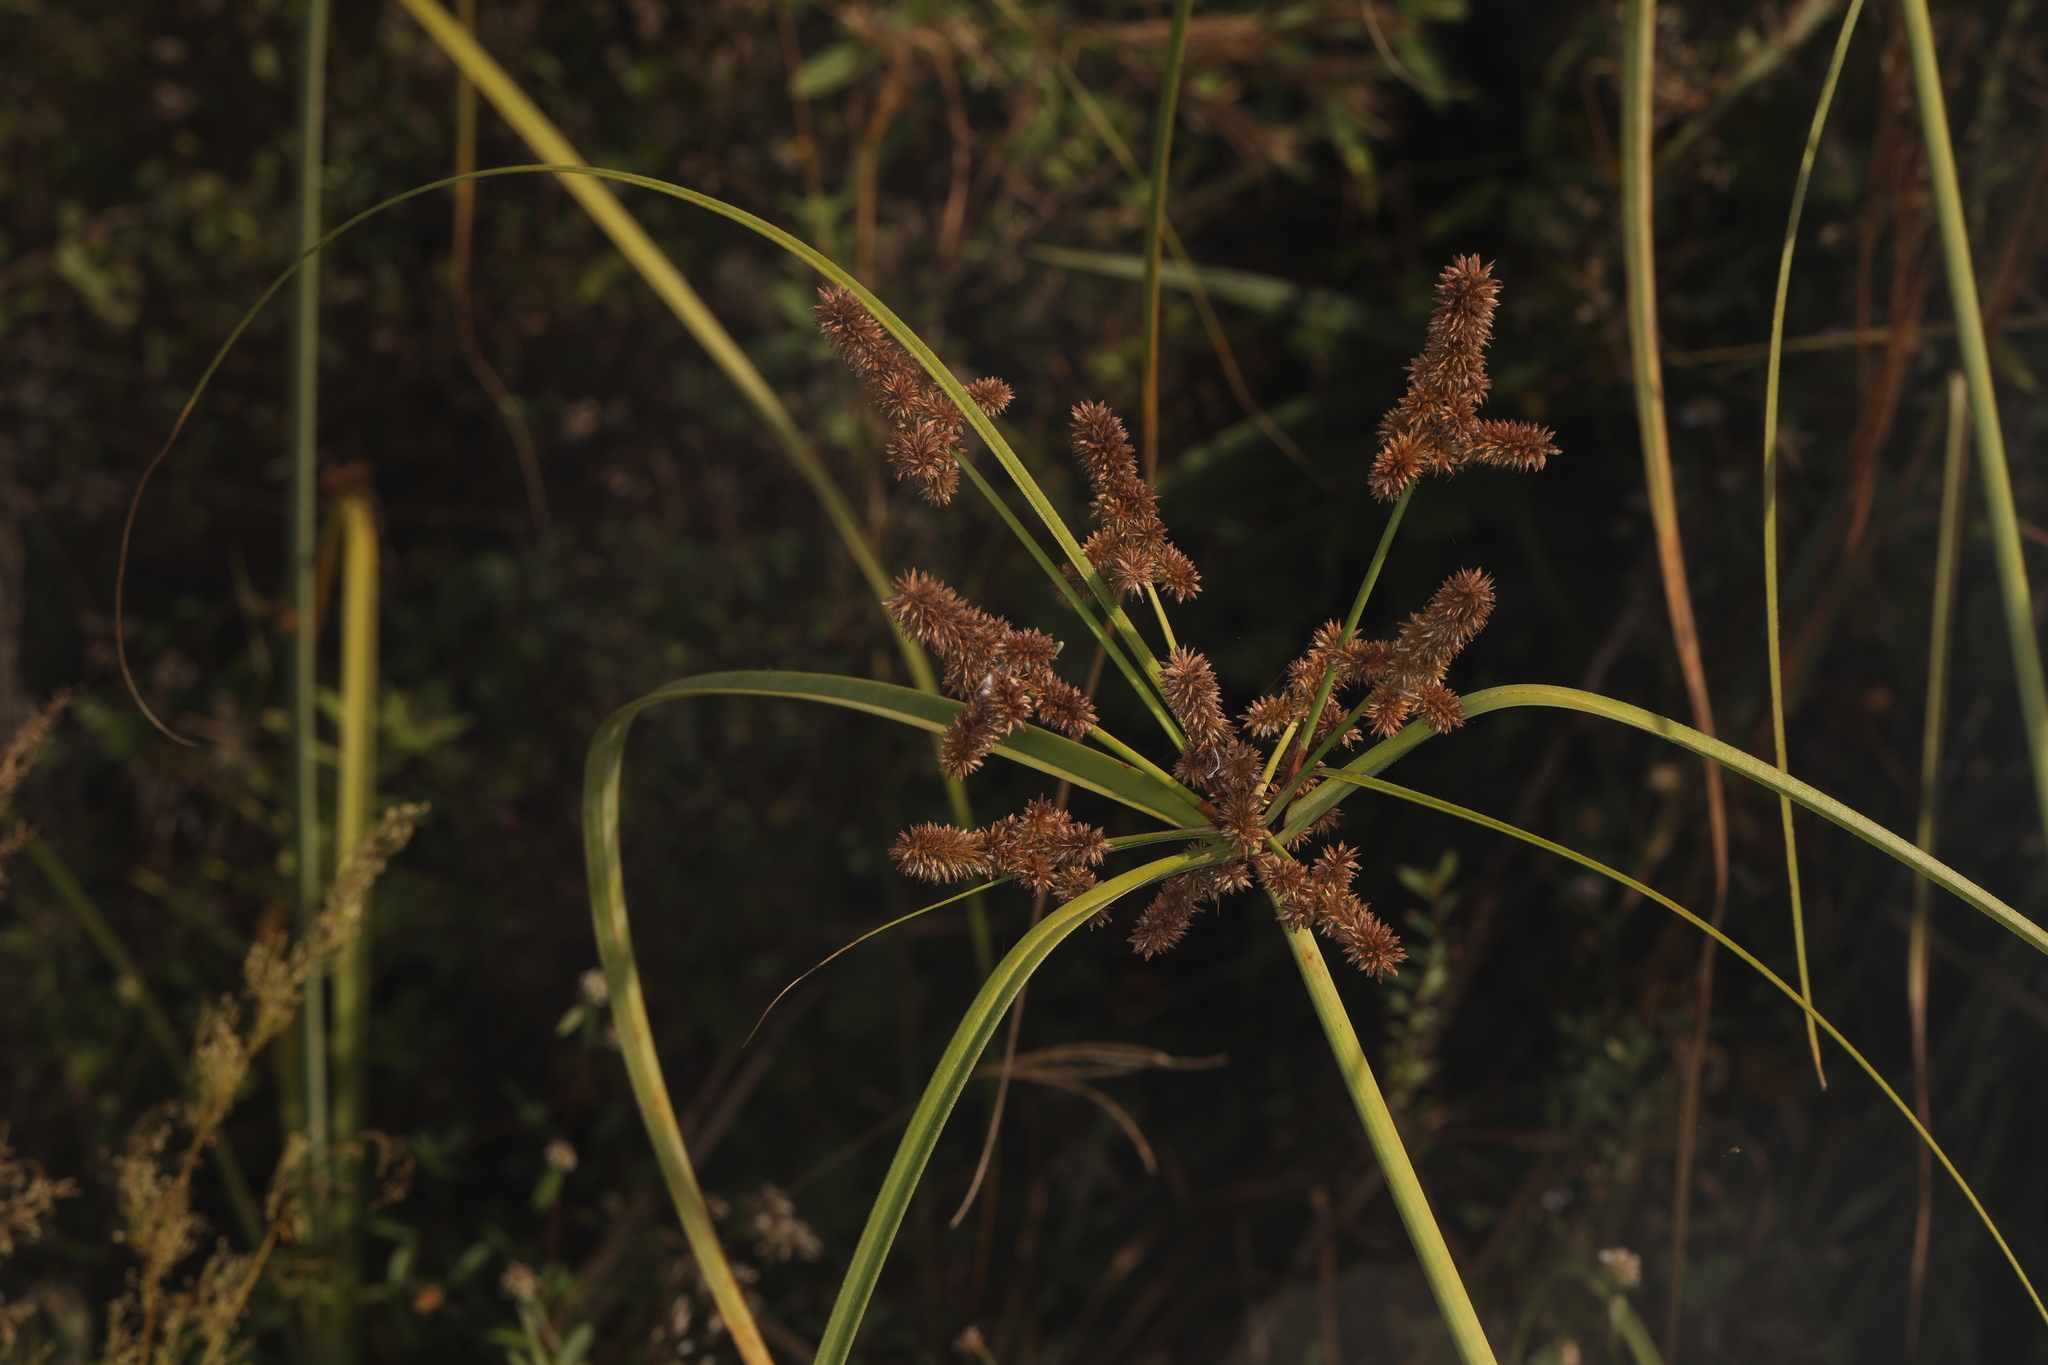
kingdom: Plantae
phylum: Tracheophyta
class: Liliopsida
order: Poales
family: Cyperaceae
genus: Cyperus
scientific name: Cyperus ligularis
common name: Swamp flat sedge
